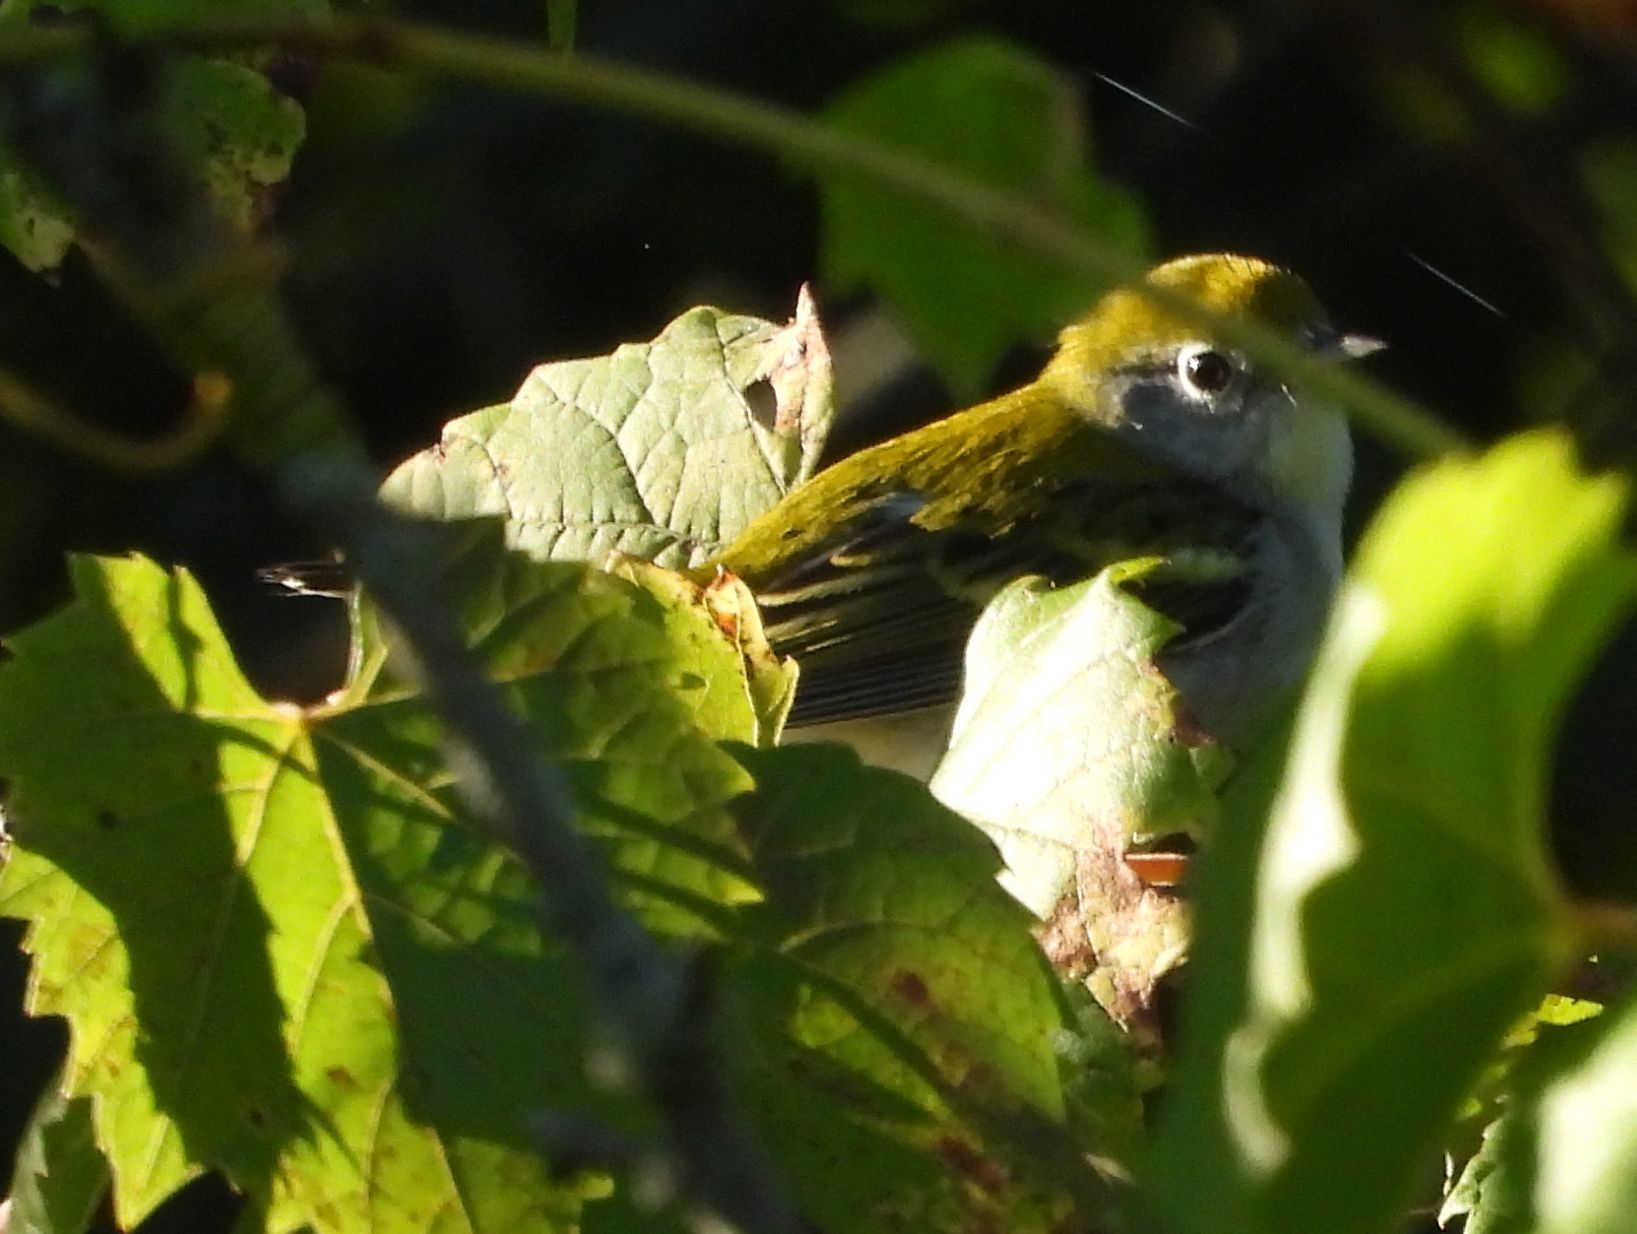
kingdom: Animalia
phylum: Chordata
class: Aves
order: Passeriformes
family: Parulidae
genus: Setophaga
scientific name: Setophaga pensylvanica
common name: Chestnut-sided warbler
